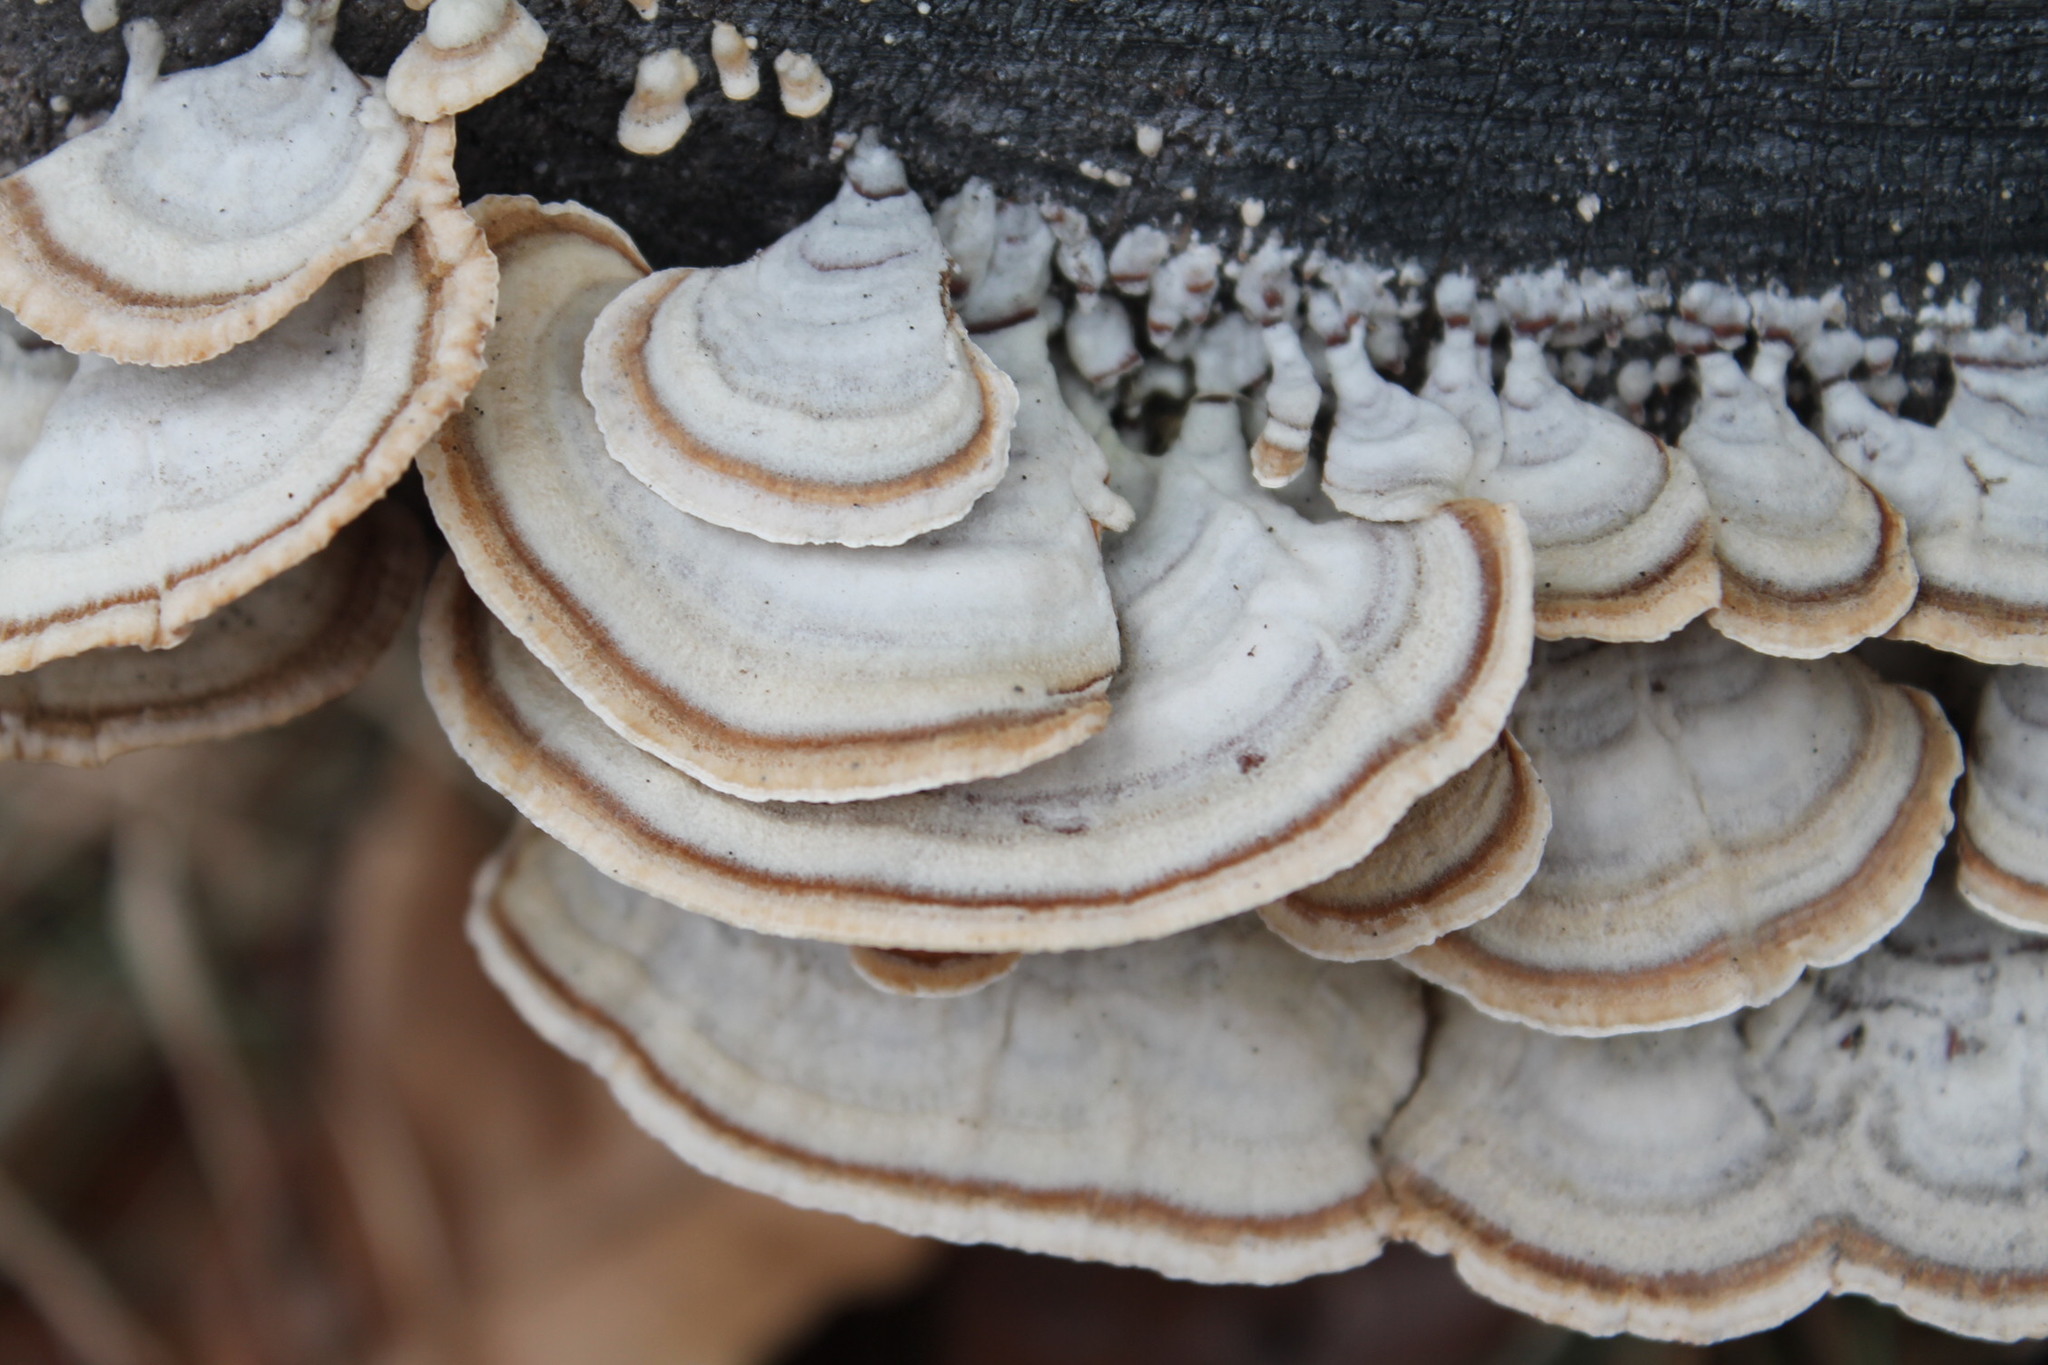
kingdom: Fungi
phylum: Basidiomycota
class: Agaricomycetes
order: Russulales
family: Stereaceae
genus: Stereum
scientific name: Stereum lobatum
